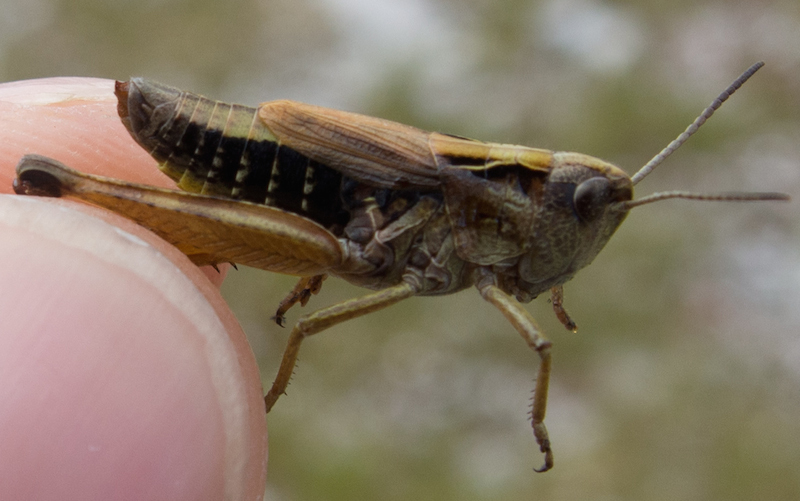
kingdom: Animalia
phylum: Arthropoda
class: Insecta
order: Orthoptera
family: Acrididae
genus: Chorthippus
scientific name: Chorthippus alticola
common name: Alpine grasshopper
